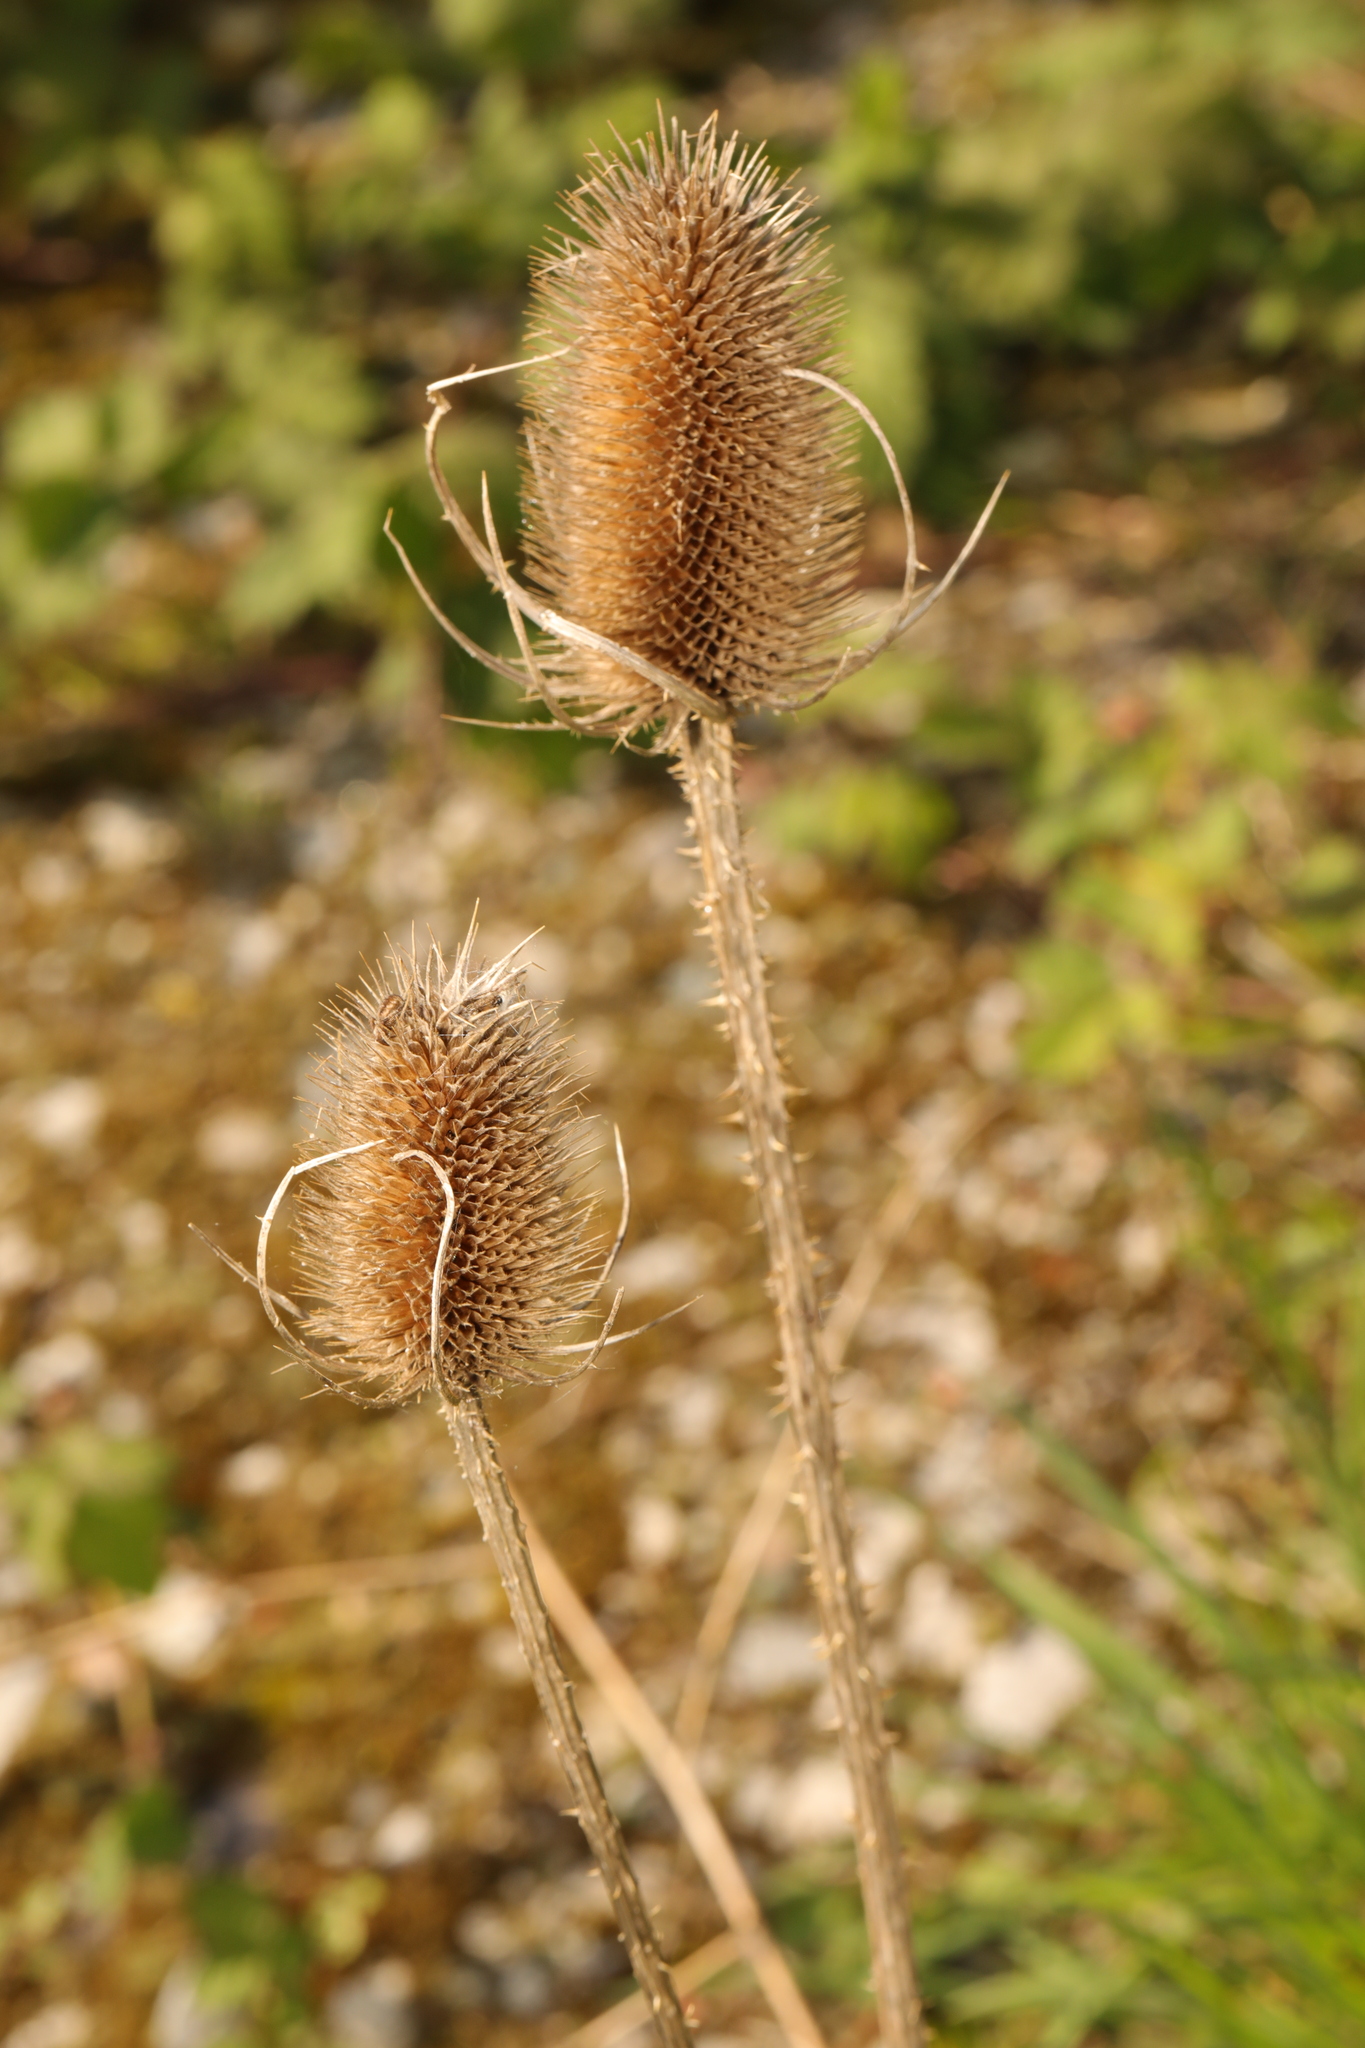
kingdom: Plantae
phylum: Tracheophyta
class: Magnoliopsida
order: Dipsacales
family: Caprifoliaceae
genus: Dipsacus
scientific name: Dipsacus fullonum
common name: Teasel
